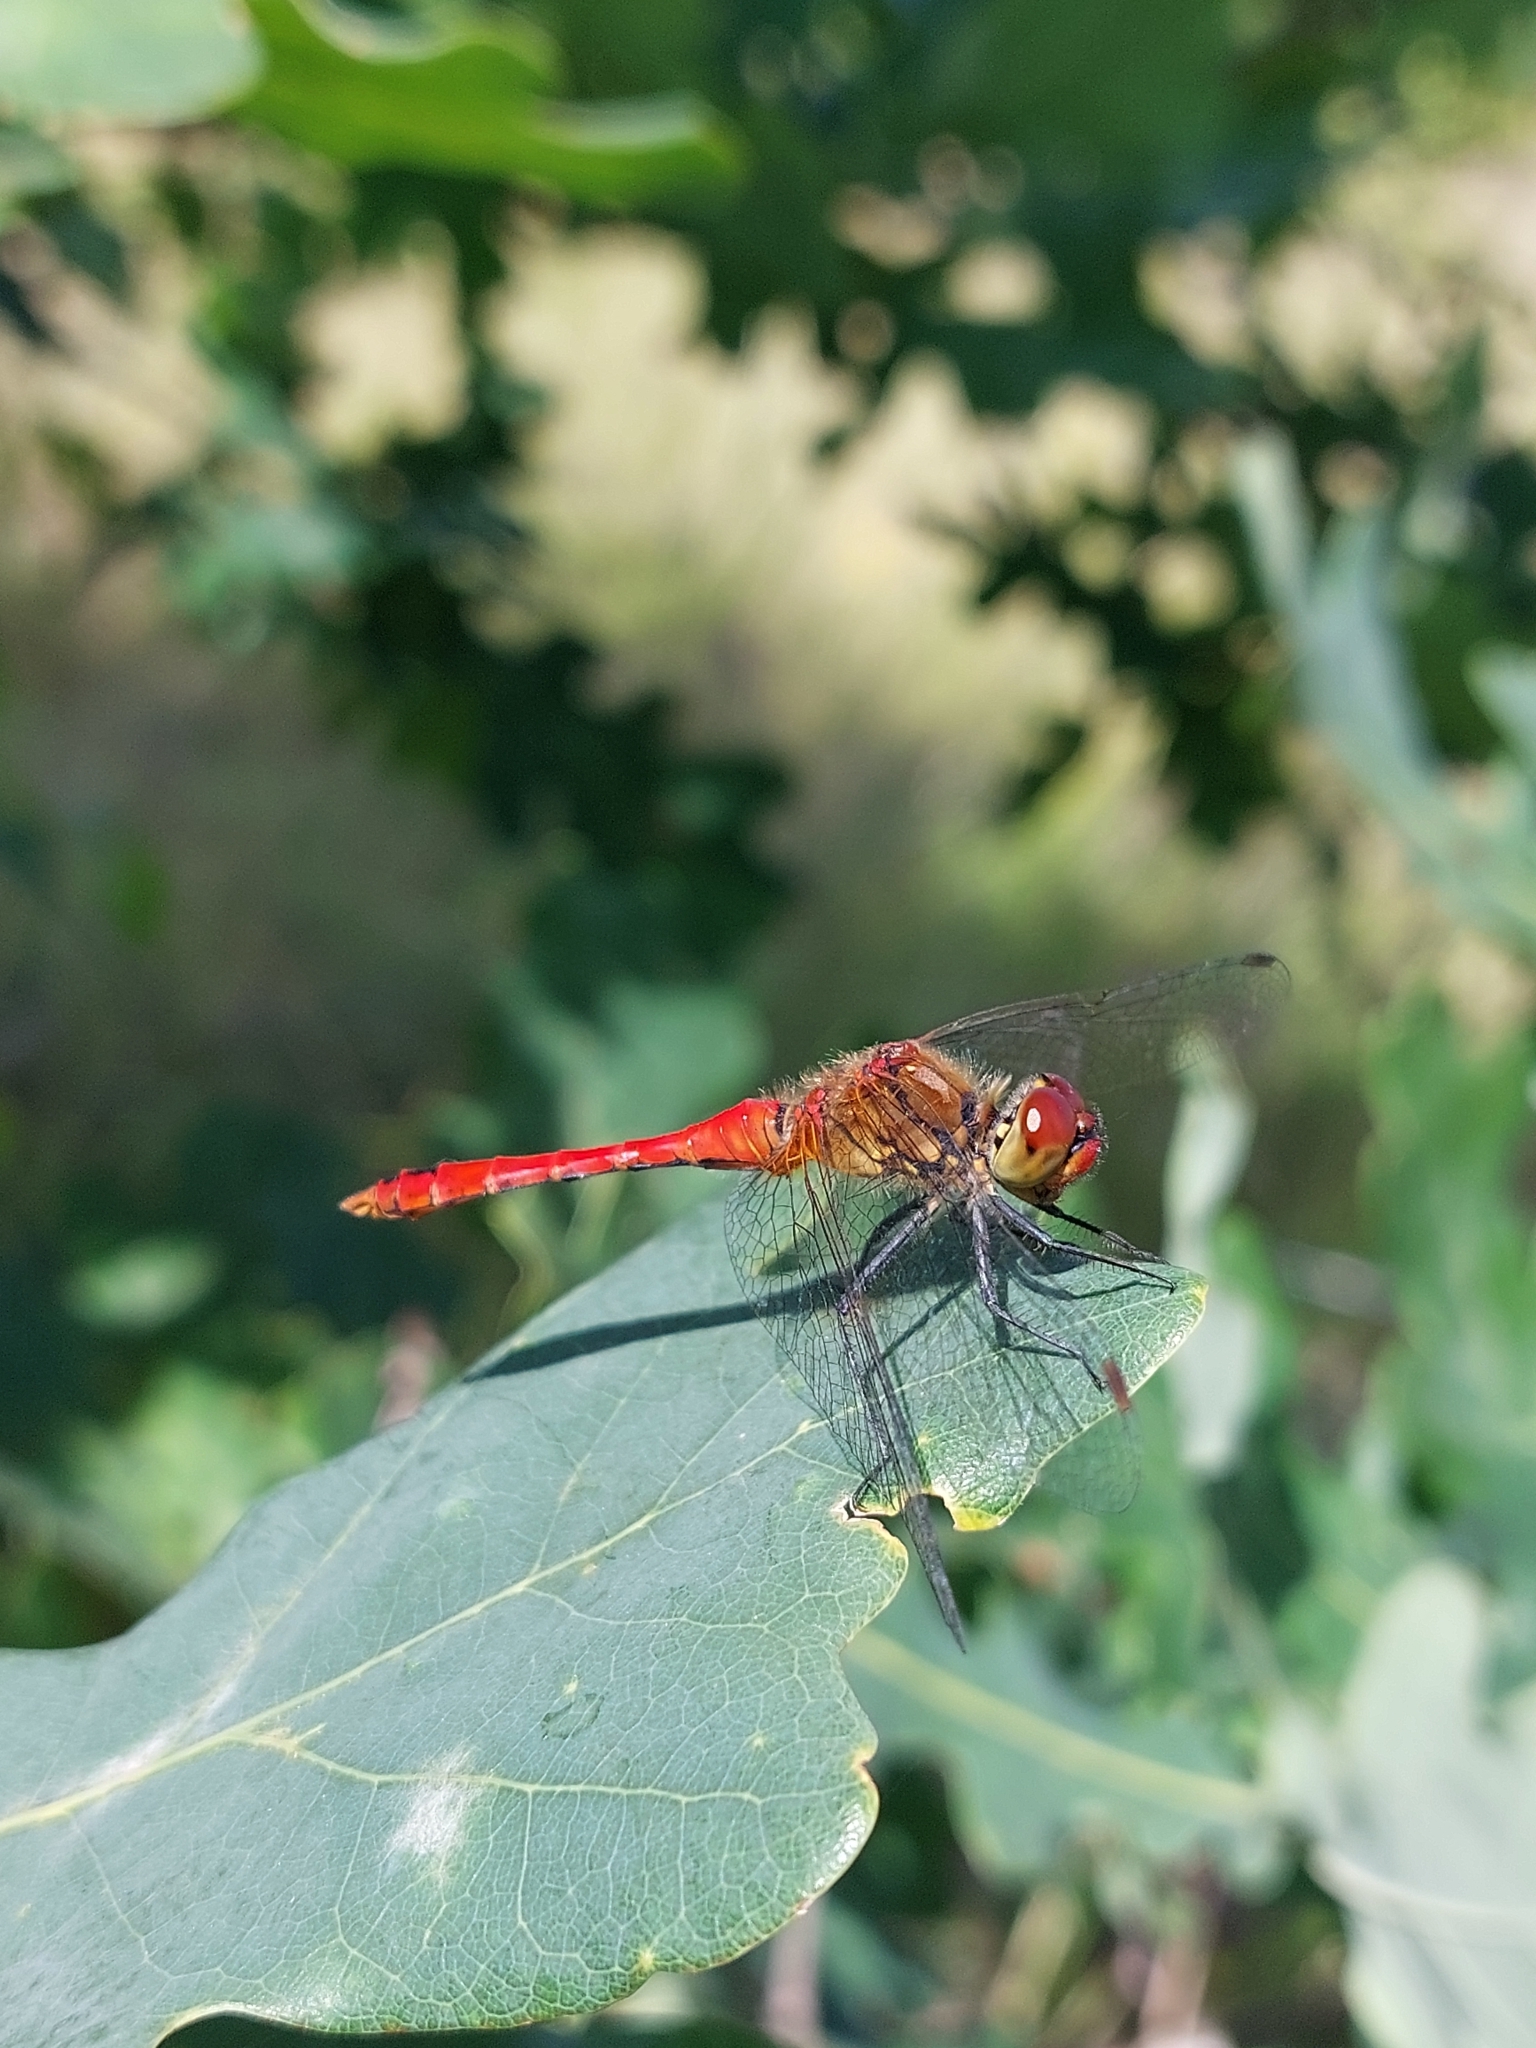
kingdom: Animalia
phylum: Arthropoda
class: Insecta
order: Odonata
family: Libellulidae
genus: Sympetrum
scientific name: Sympetrum sanguineum
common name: Ruddy darter
